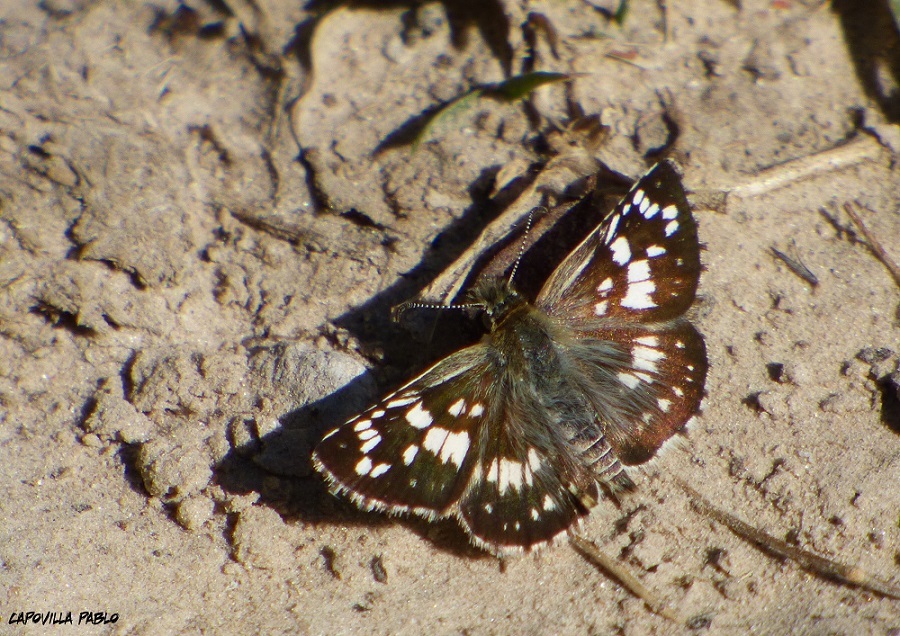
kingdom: Animalia
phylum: Arthropoda
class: Insecta
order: Lepidoptera
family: Hesperiidae
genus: Burnsius
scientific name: Burnsius orcynoides
